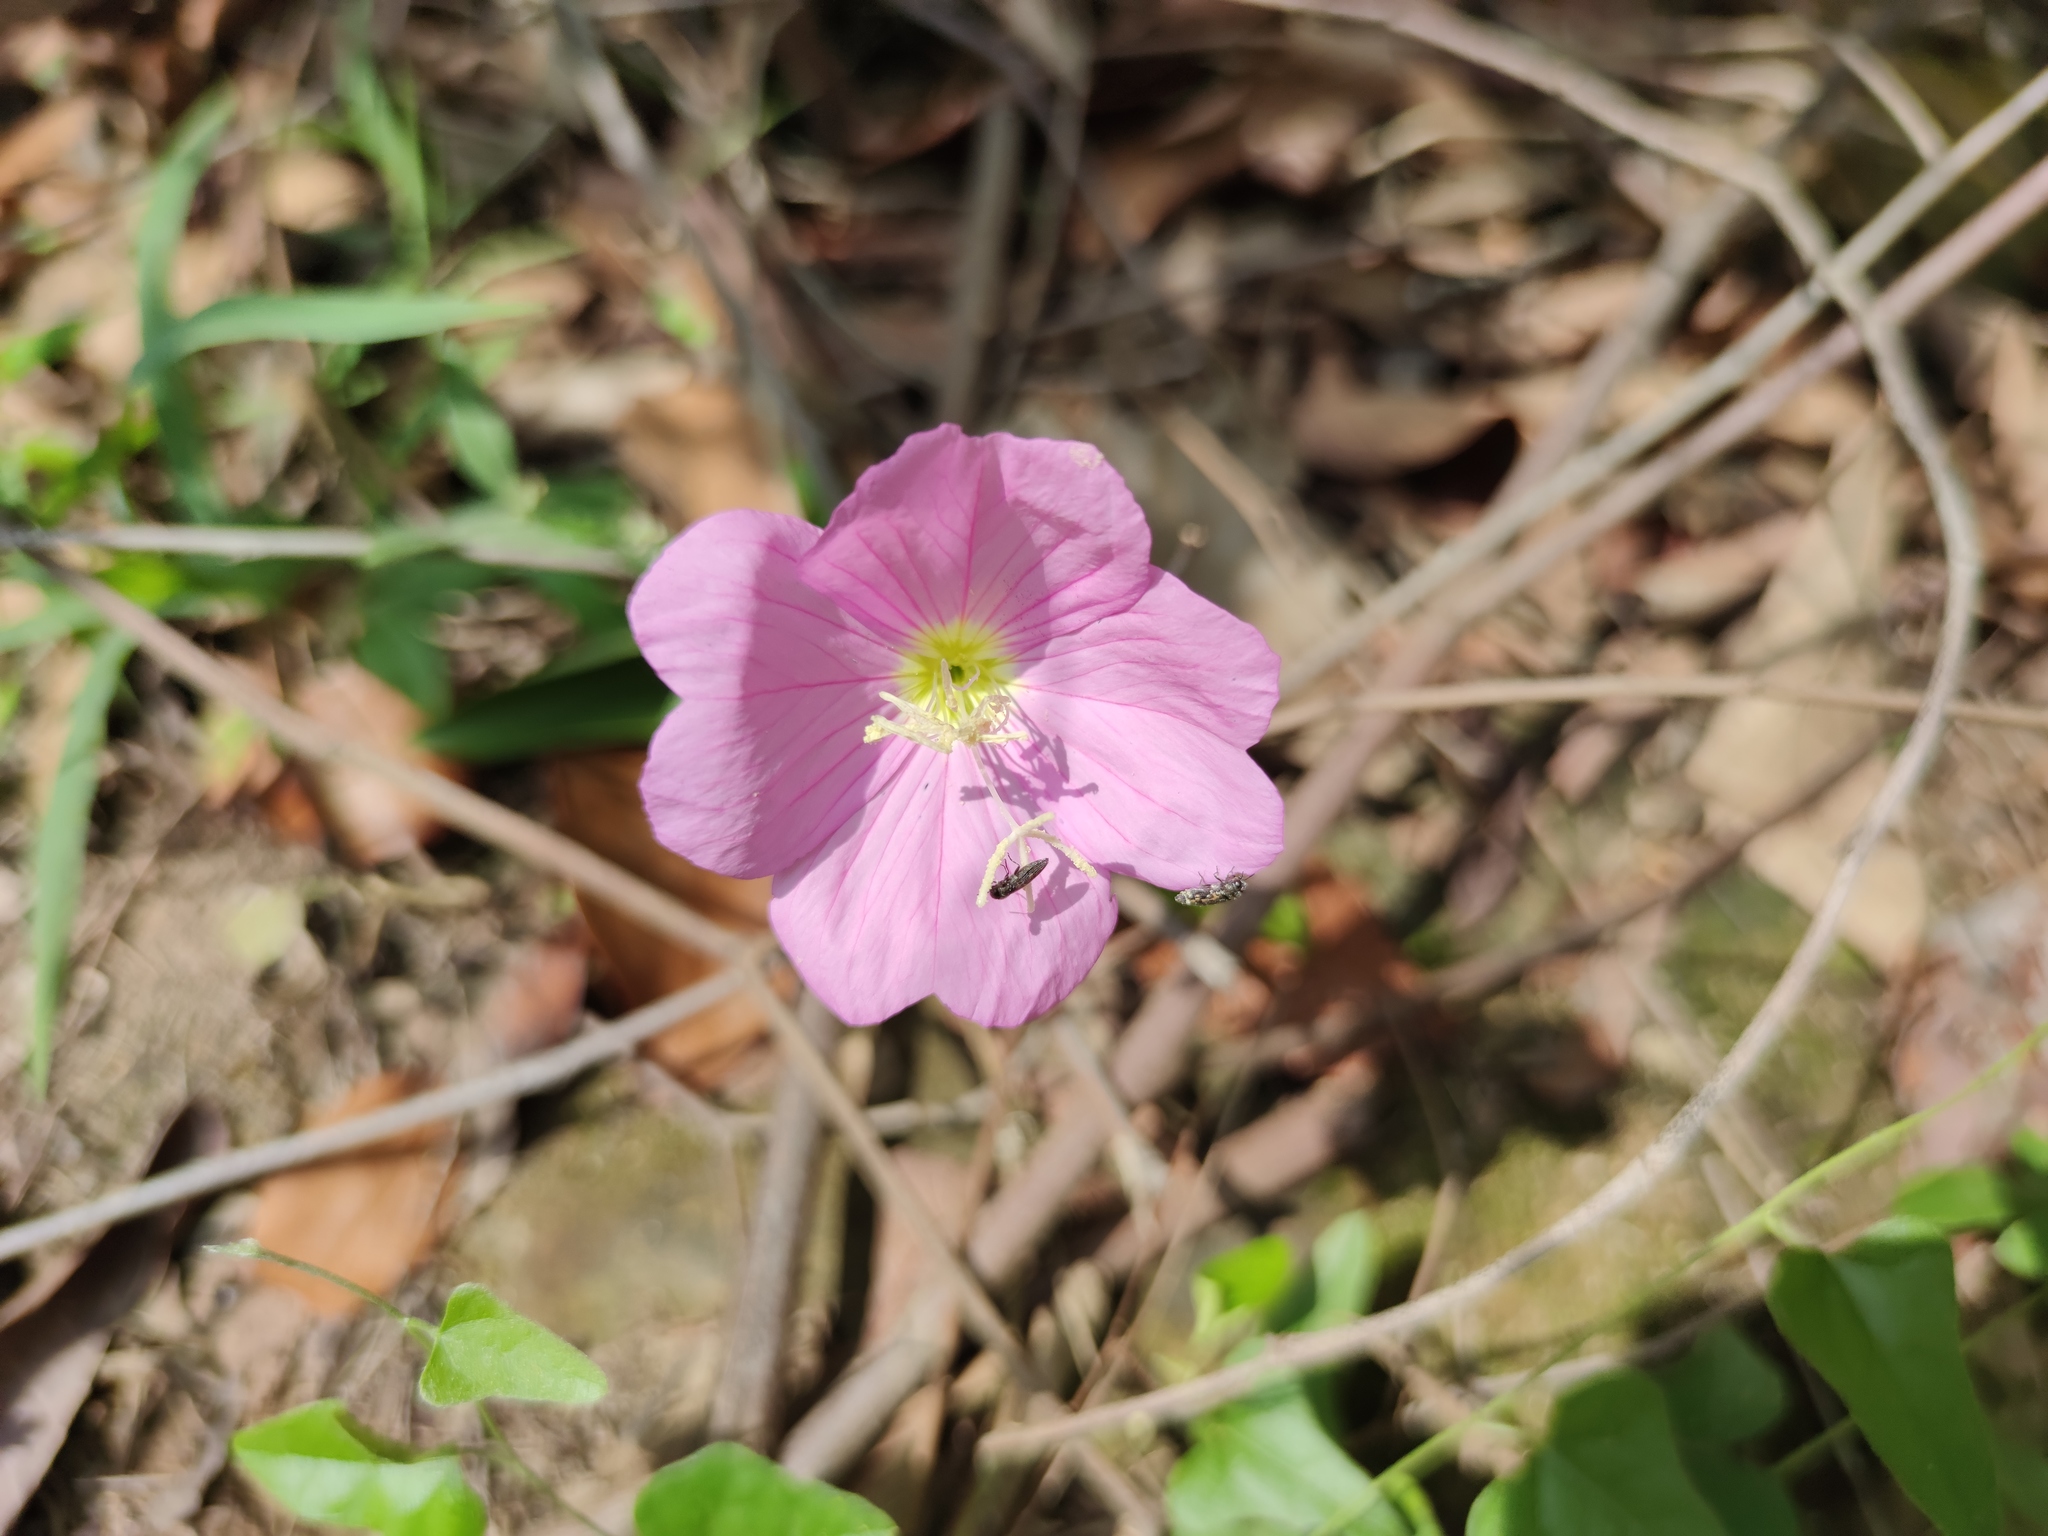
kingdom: Plantae
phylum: Tracheophyta
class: Magnoliopsida
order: Myrtales
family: Onagraceae
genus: Oenothera
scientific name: Oenothera speciosa
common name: White evening-primrose
